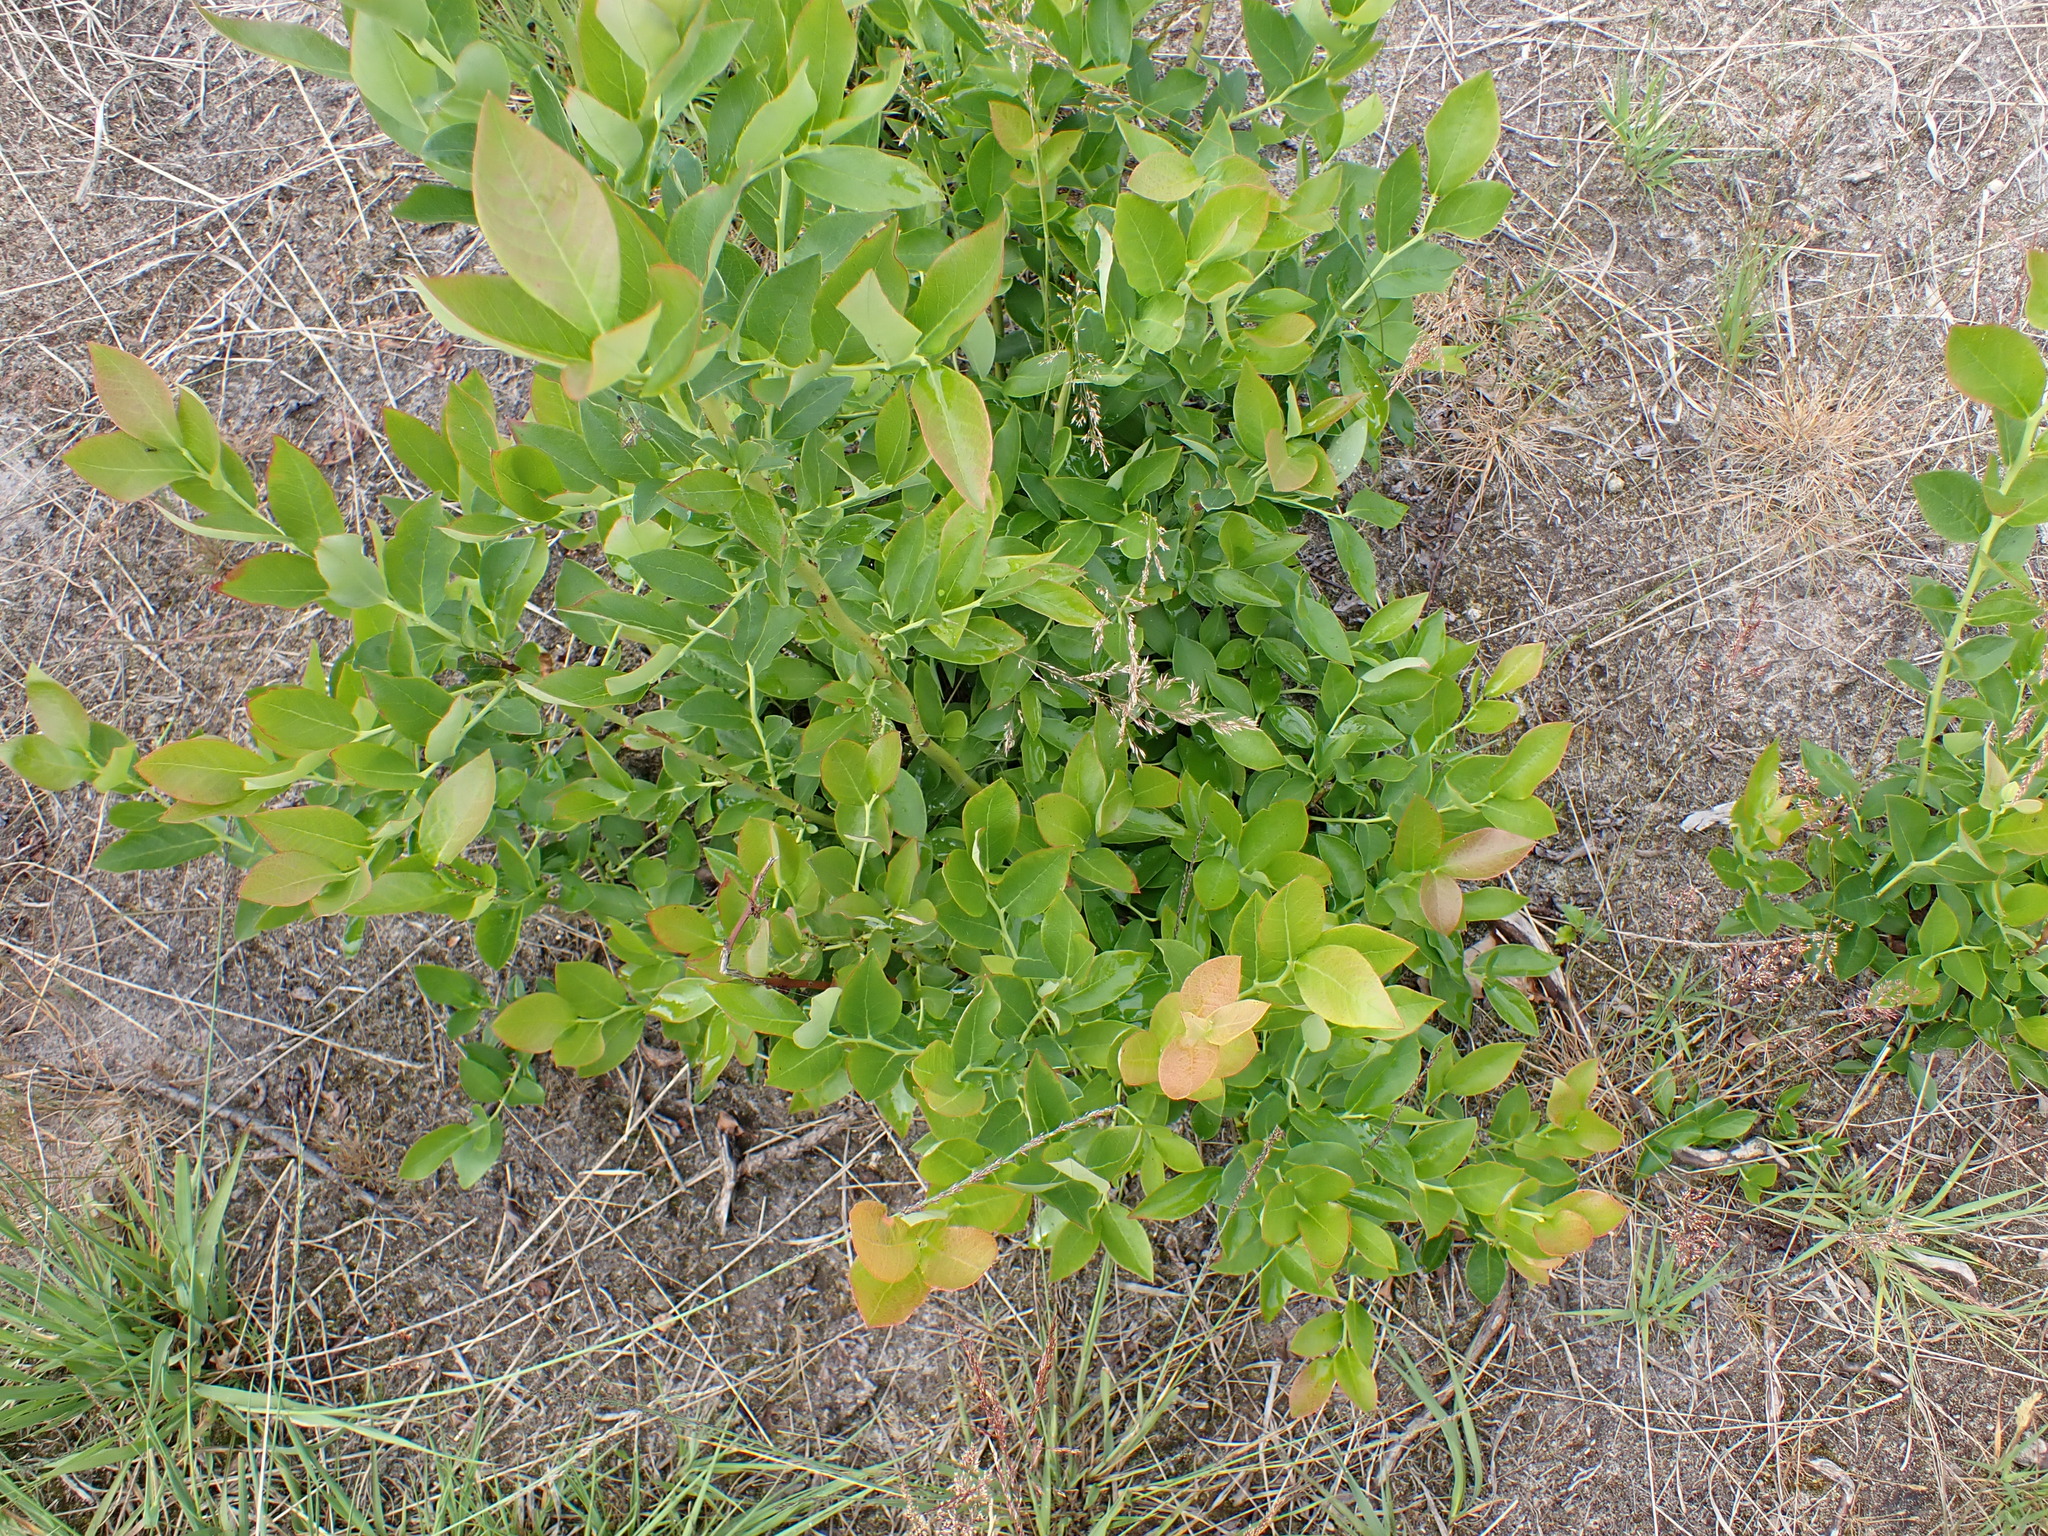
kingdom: Plantae
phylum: Tracheophyta
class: Magnoliopsida
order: Ericales
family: Ericaceae
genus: Vaccinium
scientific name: Vaccinium corymbosum
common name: Blueberry
